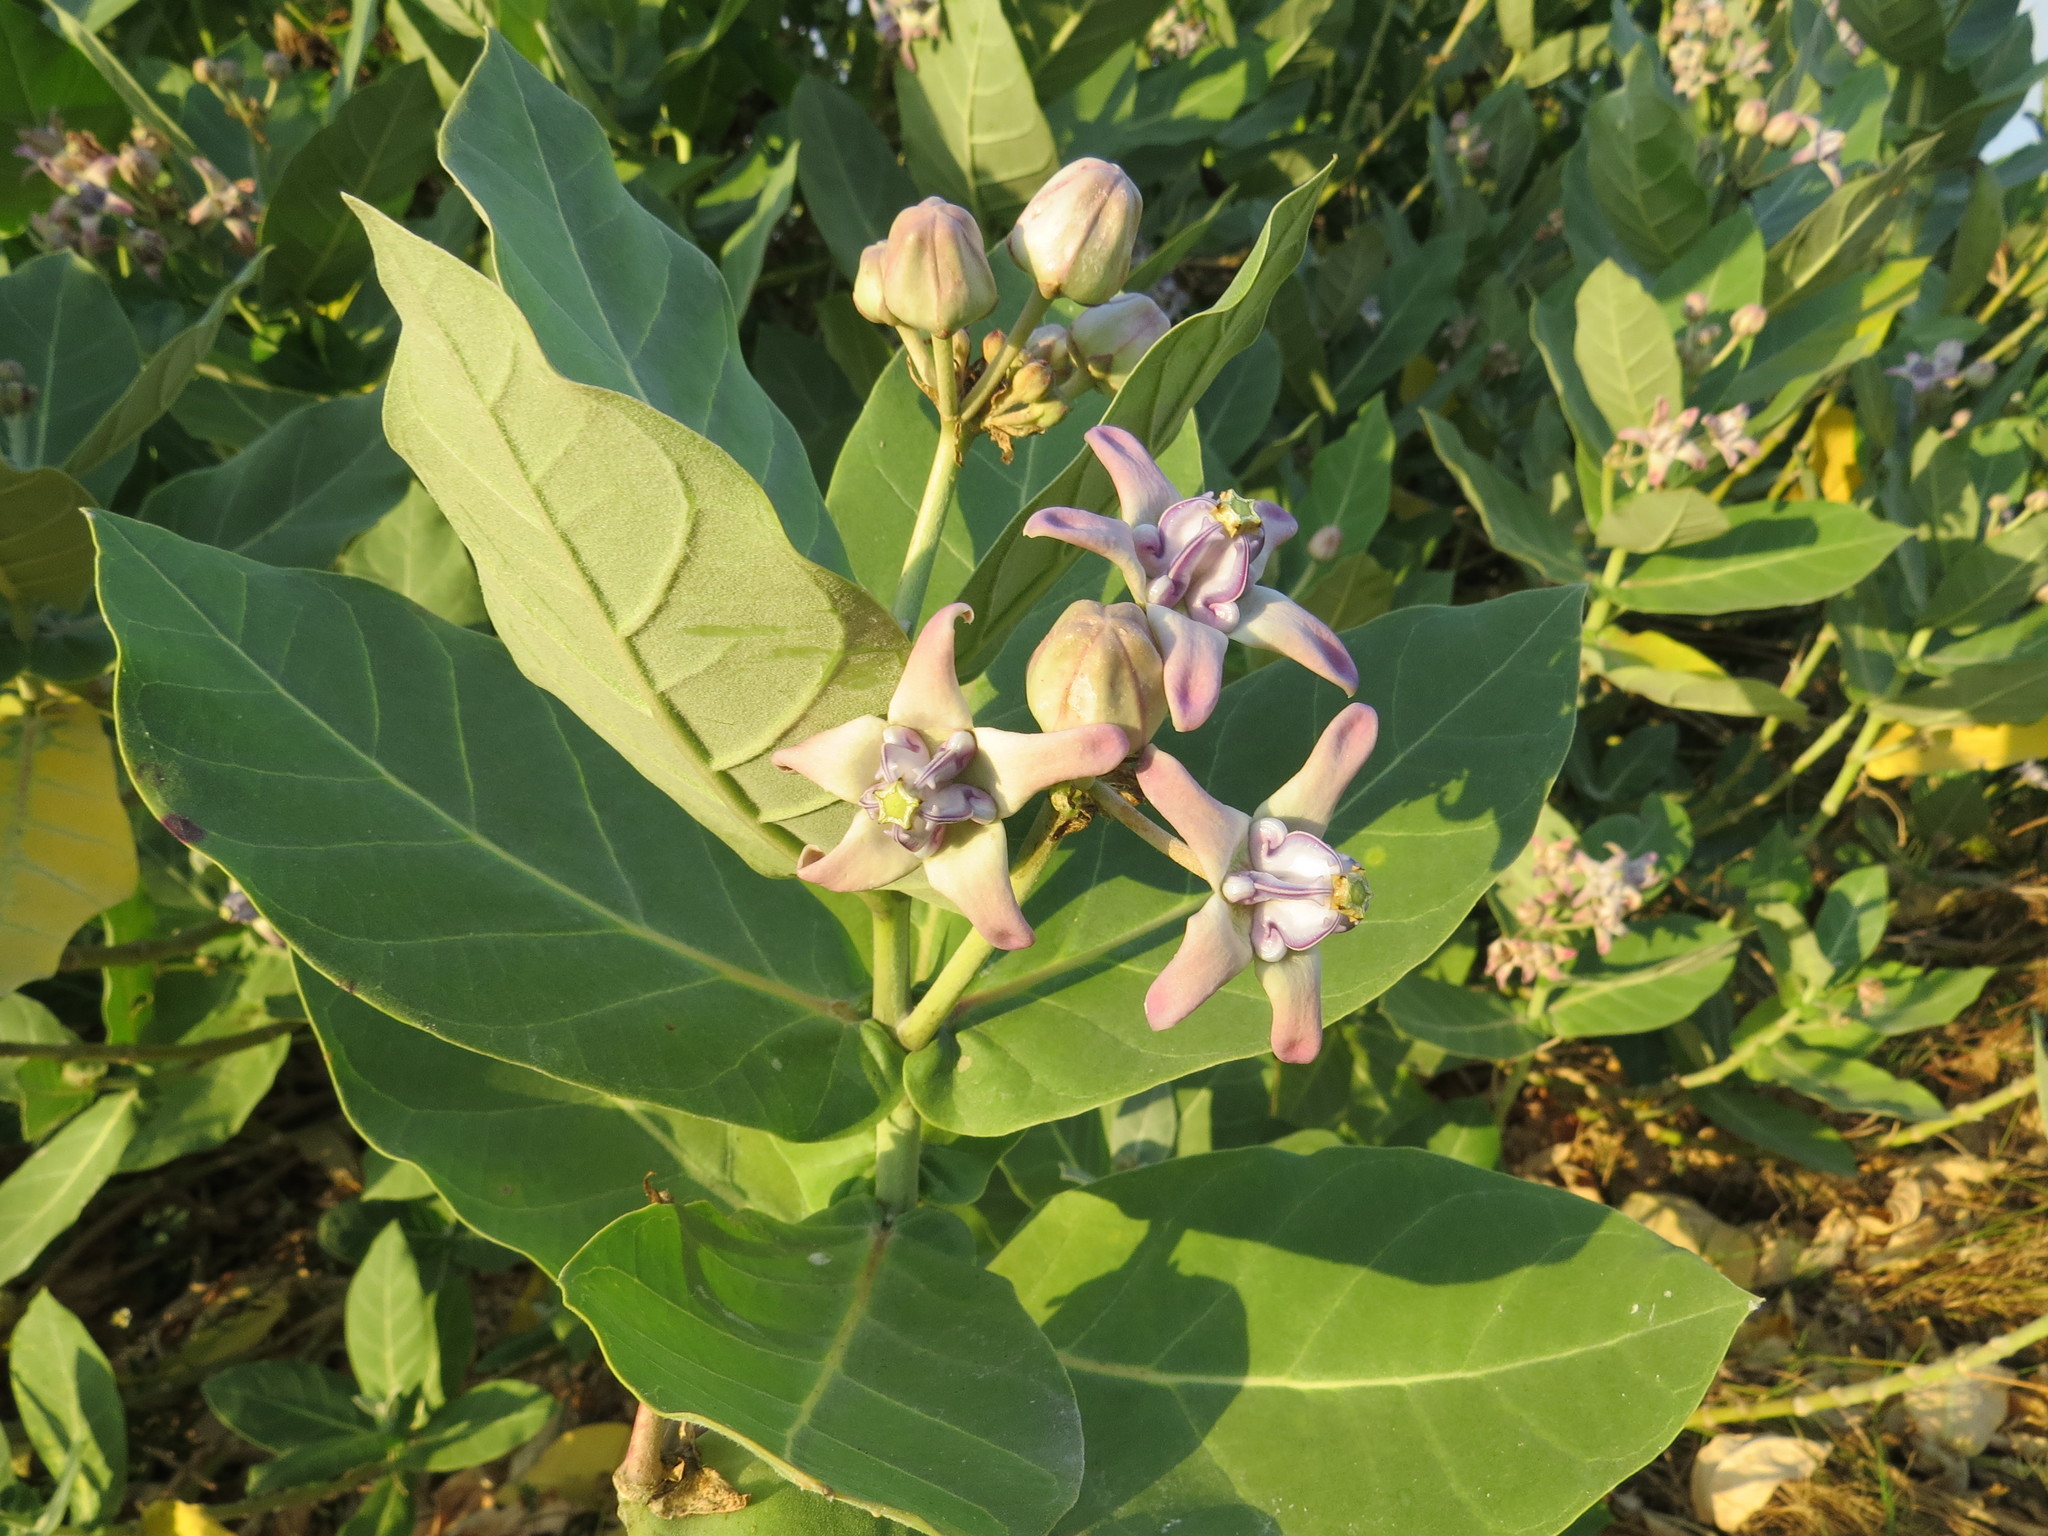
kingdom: Plantae
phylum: Tracheophyta
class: Magnoliopsida
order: Gentianales
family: Apocynaceae
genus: Calotropis
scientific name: Calotropis gigantea
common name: Crown flower
